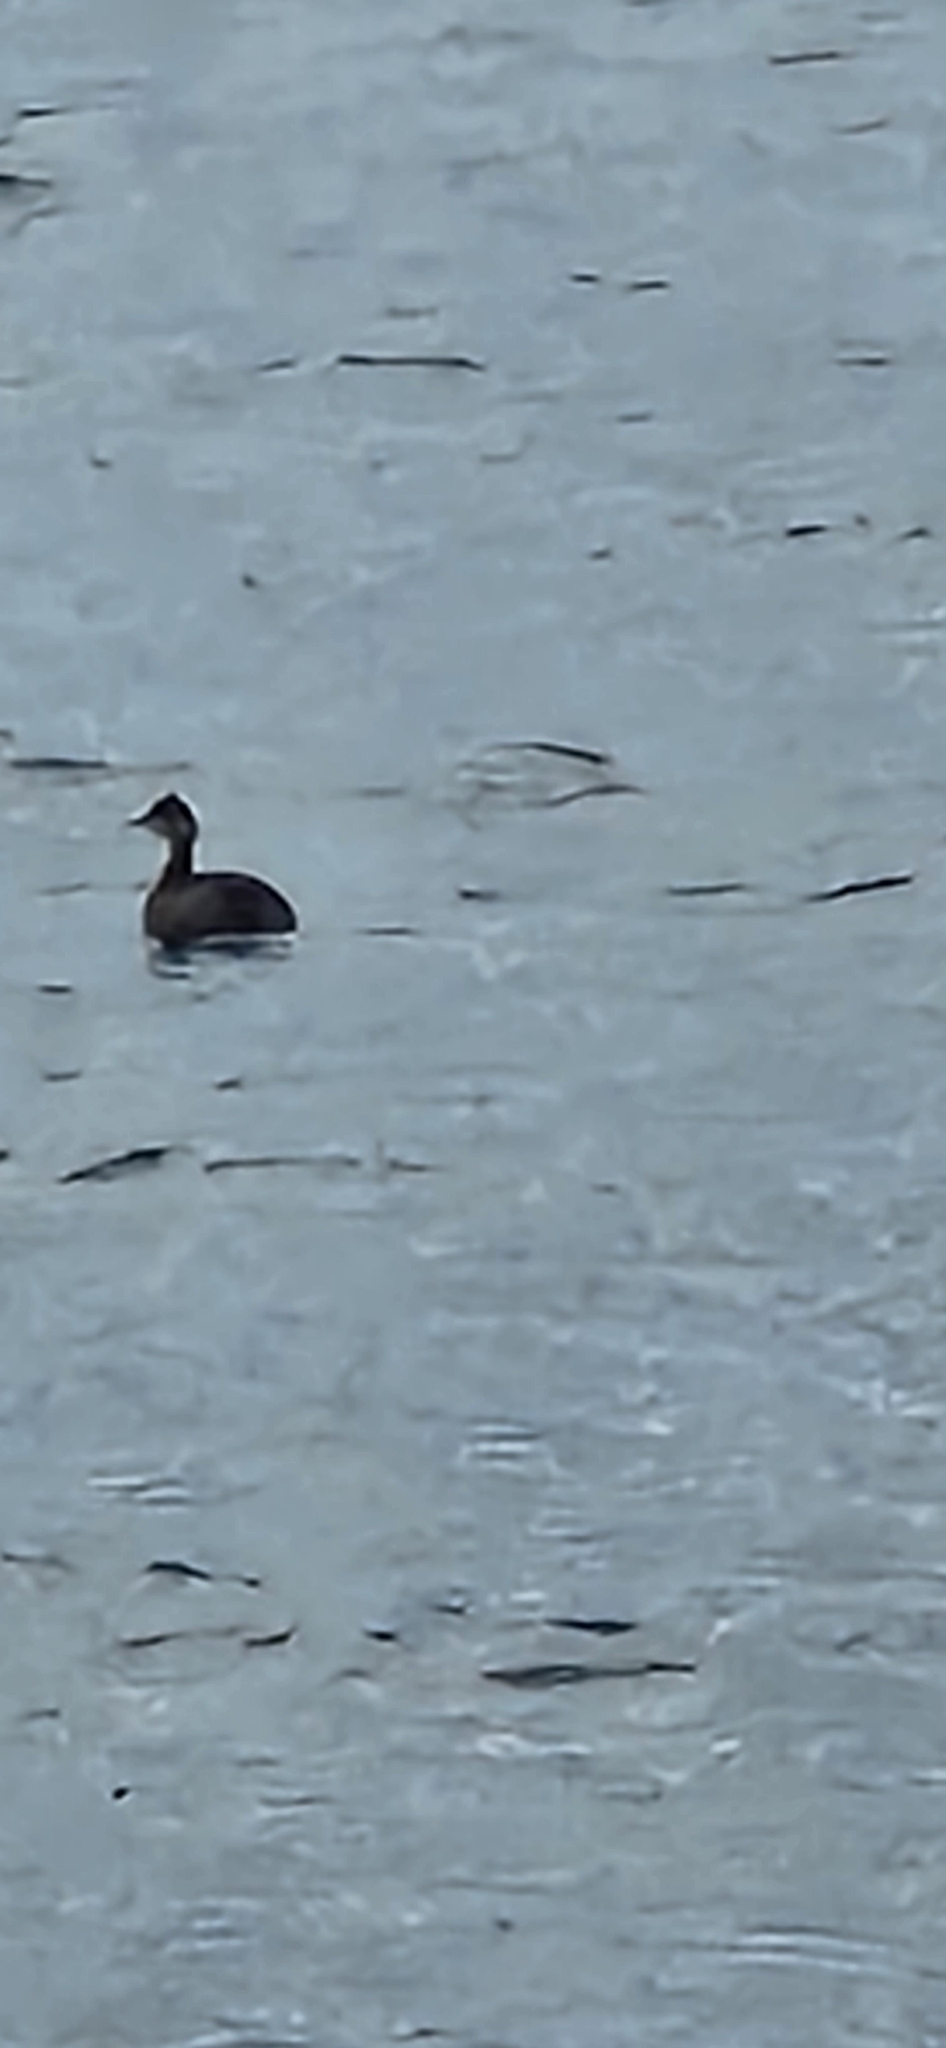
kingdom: Animalia
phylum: Chordata
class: Aves
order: Podicipediformes
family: Podicipedidae
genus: Podiceps
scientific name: Podiceps nigricollis
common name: Black-necked grebe
